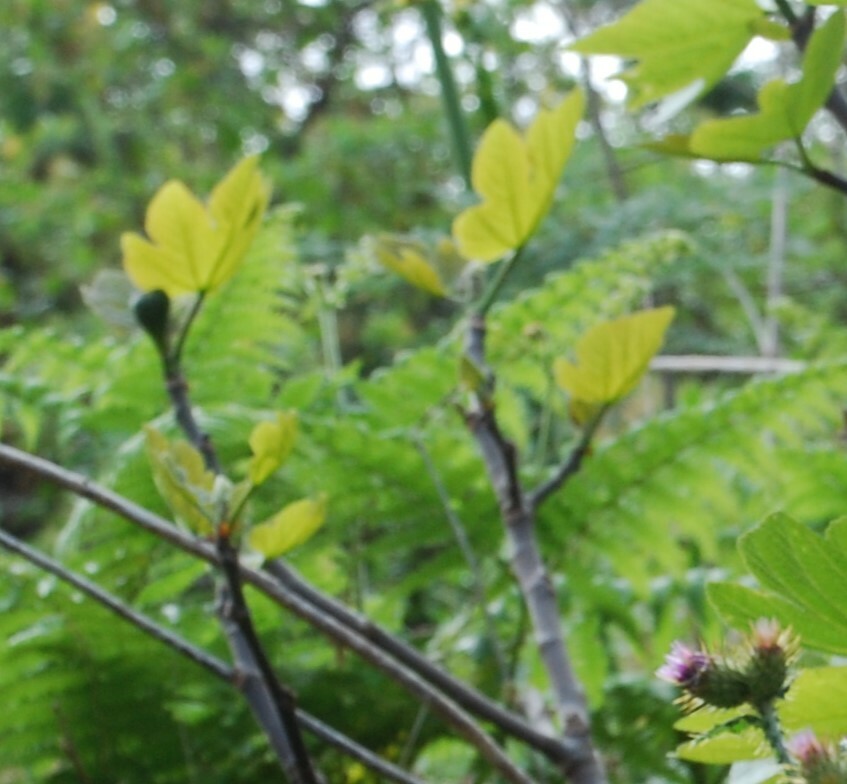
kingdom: Plantae
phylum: Tracheophyta
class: Magnoliopsida
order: Rosales
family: Moraceae
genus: Ficus
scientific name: Ficus carica
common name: Fig
